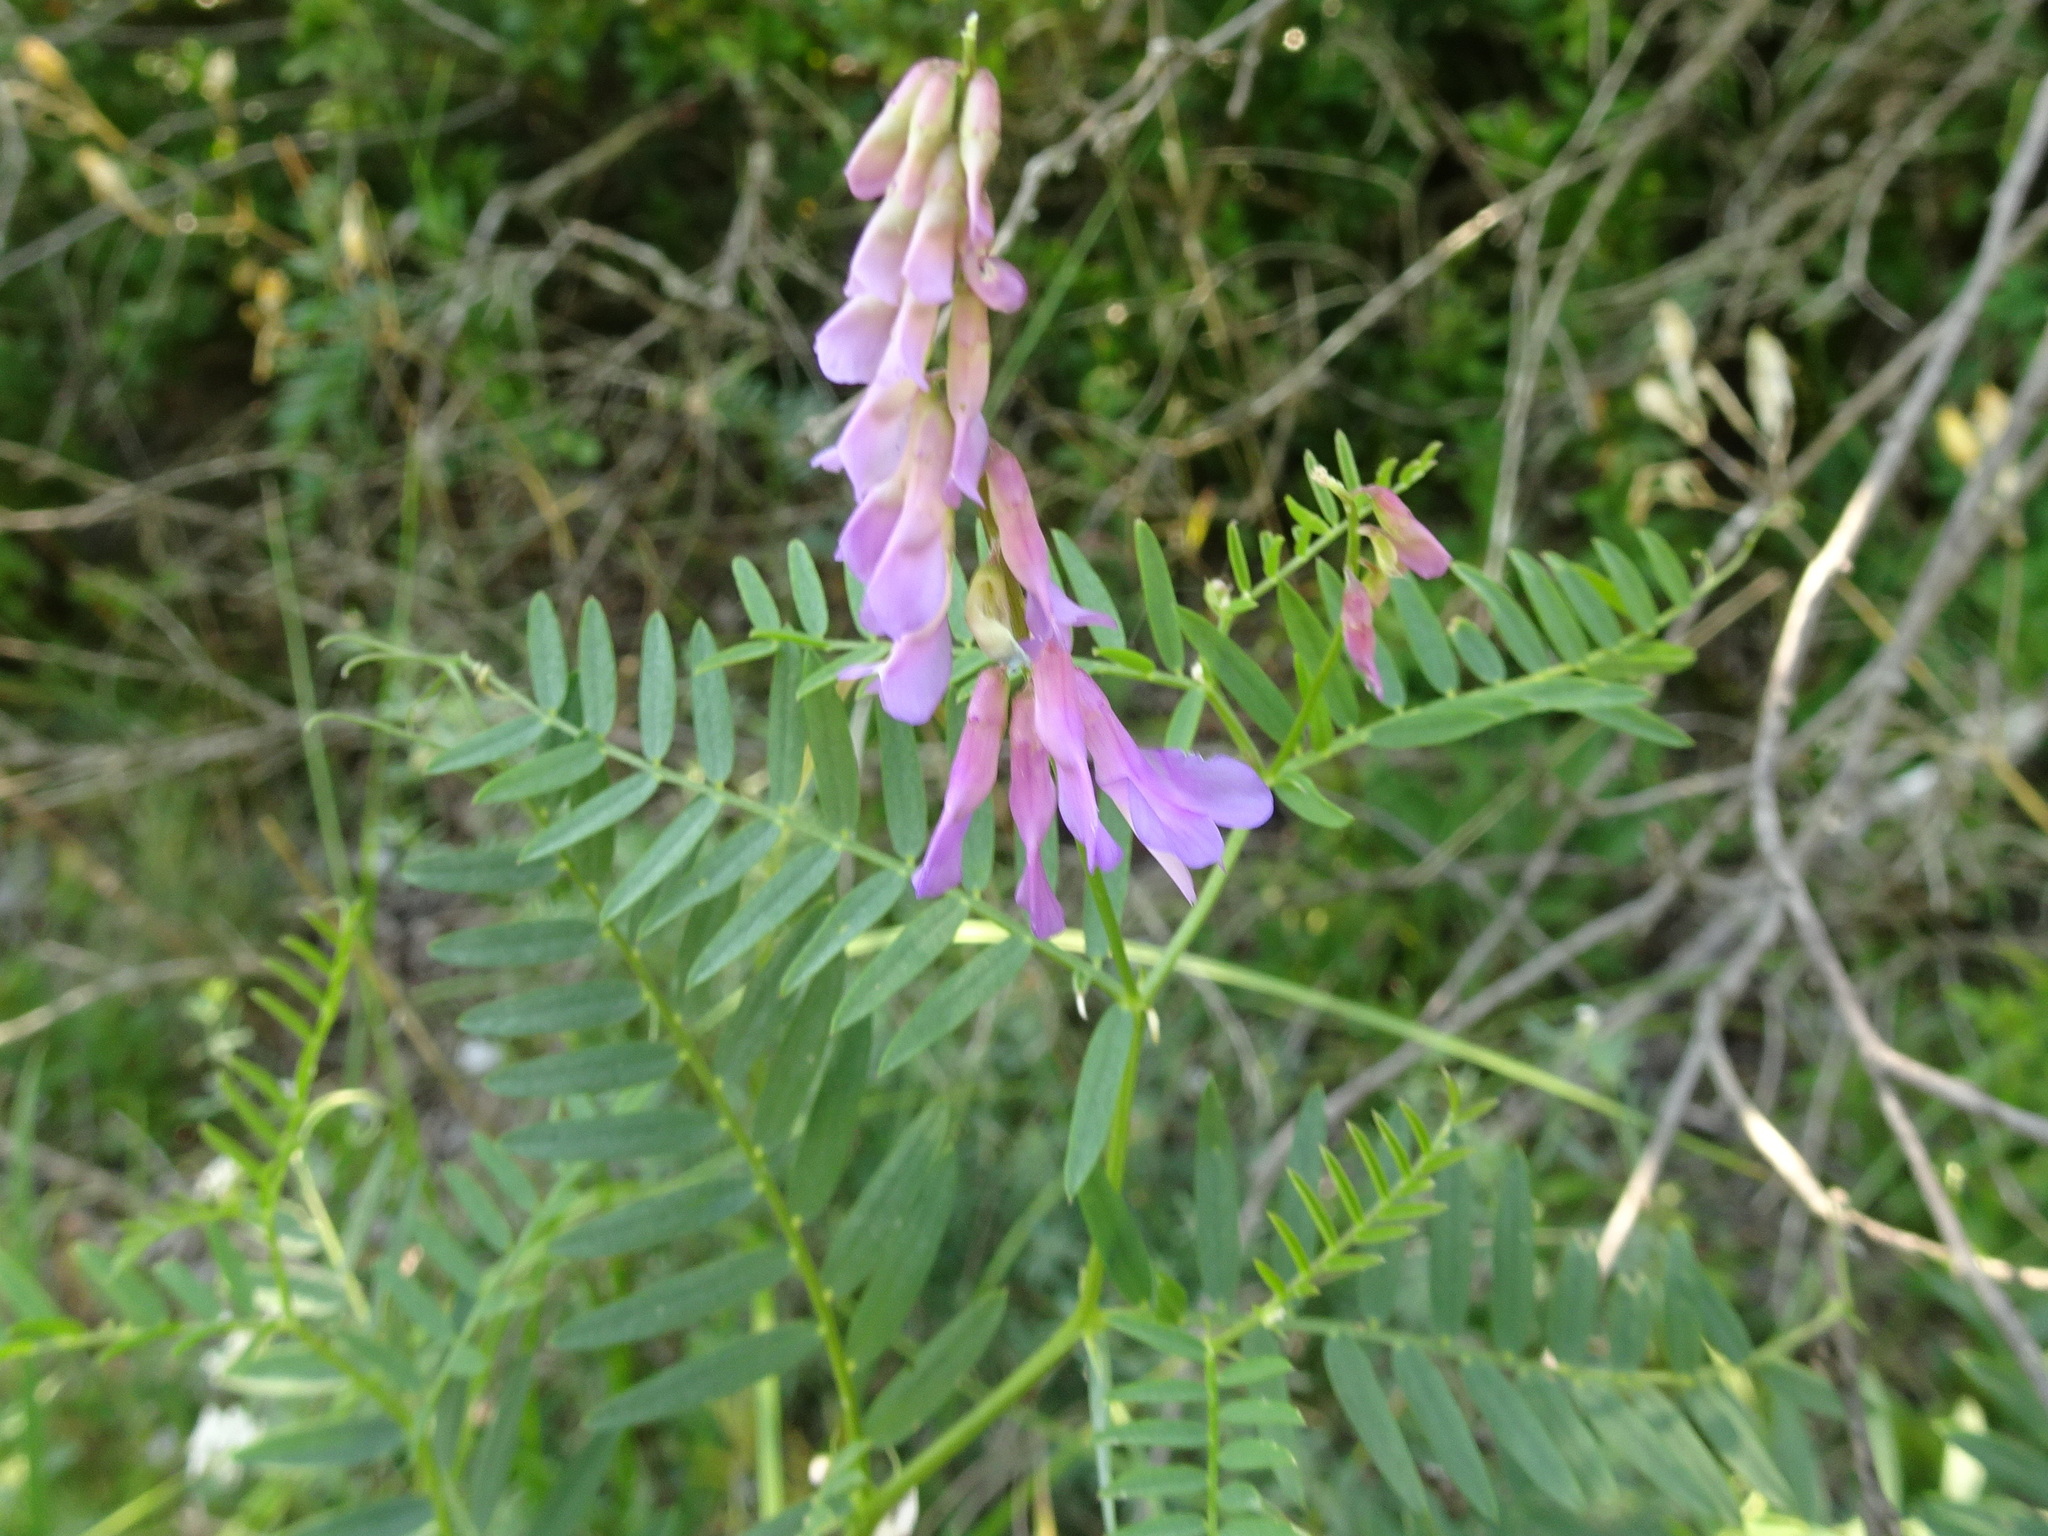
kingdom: Plantae
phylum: Tracheophyta
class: Magnoliopsida
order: Fabales
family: Fabaceae
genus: Vicia
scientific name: Vicia cracca
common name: Bird vetch
